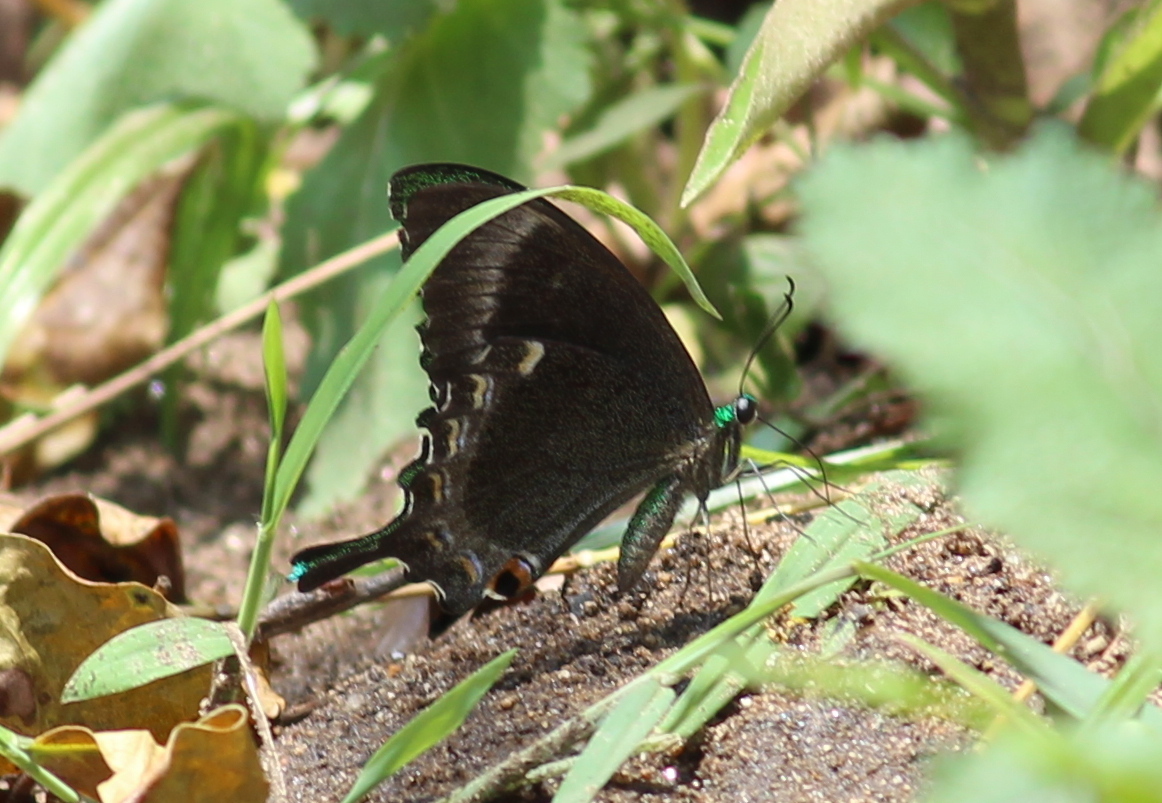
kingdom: Animalia
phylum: Arthropoda
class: Insecta
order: Lepidoptera
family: Papilionidae
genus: Papilio
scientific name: Papilio crino
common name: Common banded peacock
